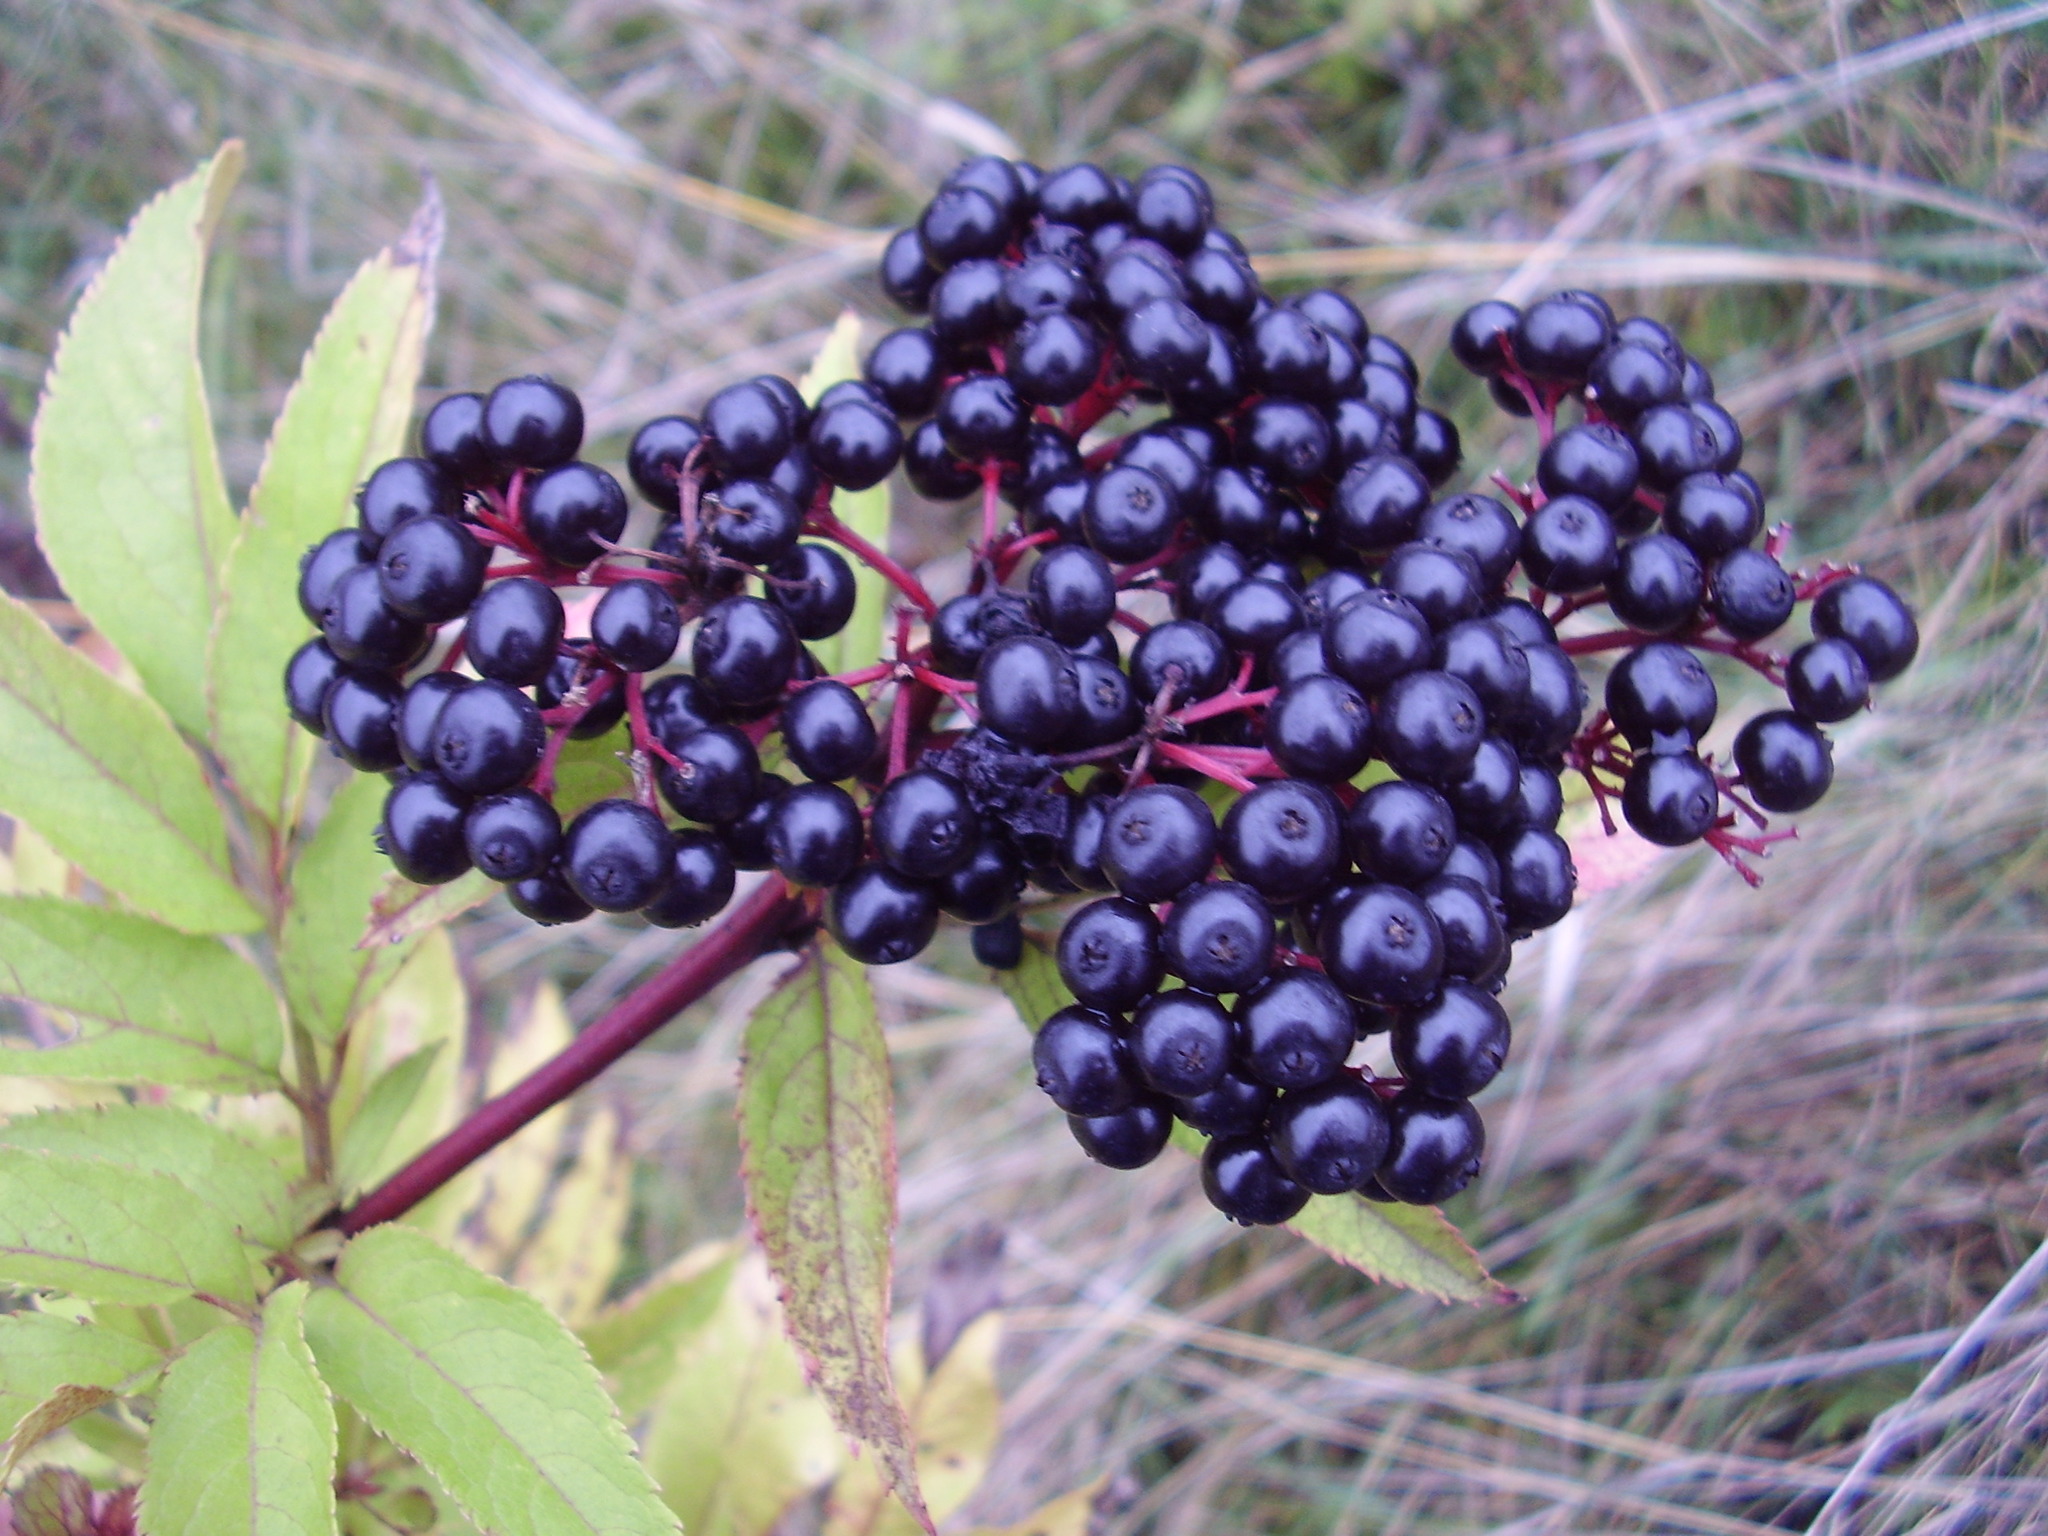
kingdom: Plantae
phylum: Tracheophyta
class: Magnoliopsida
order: Dipsacales
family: Viburnaceae
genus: Sambucus
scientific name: Sambucus ebulus
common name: Dwarf elder
